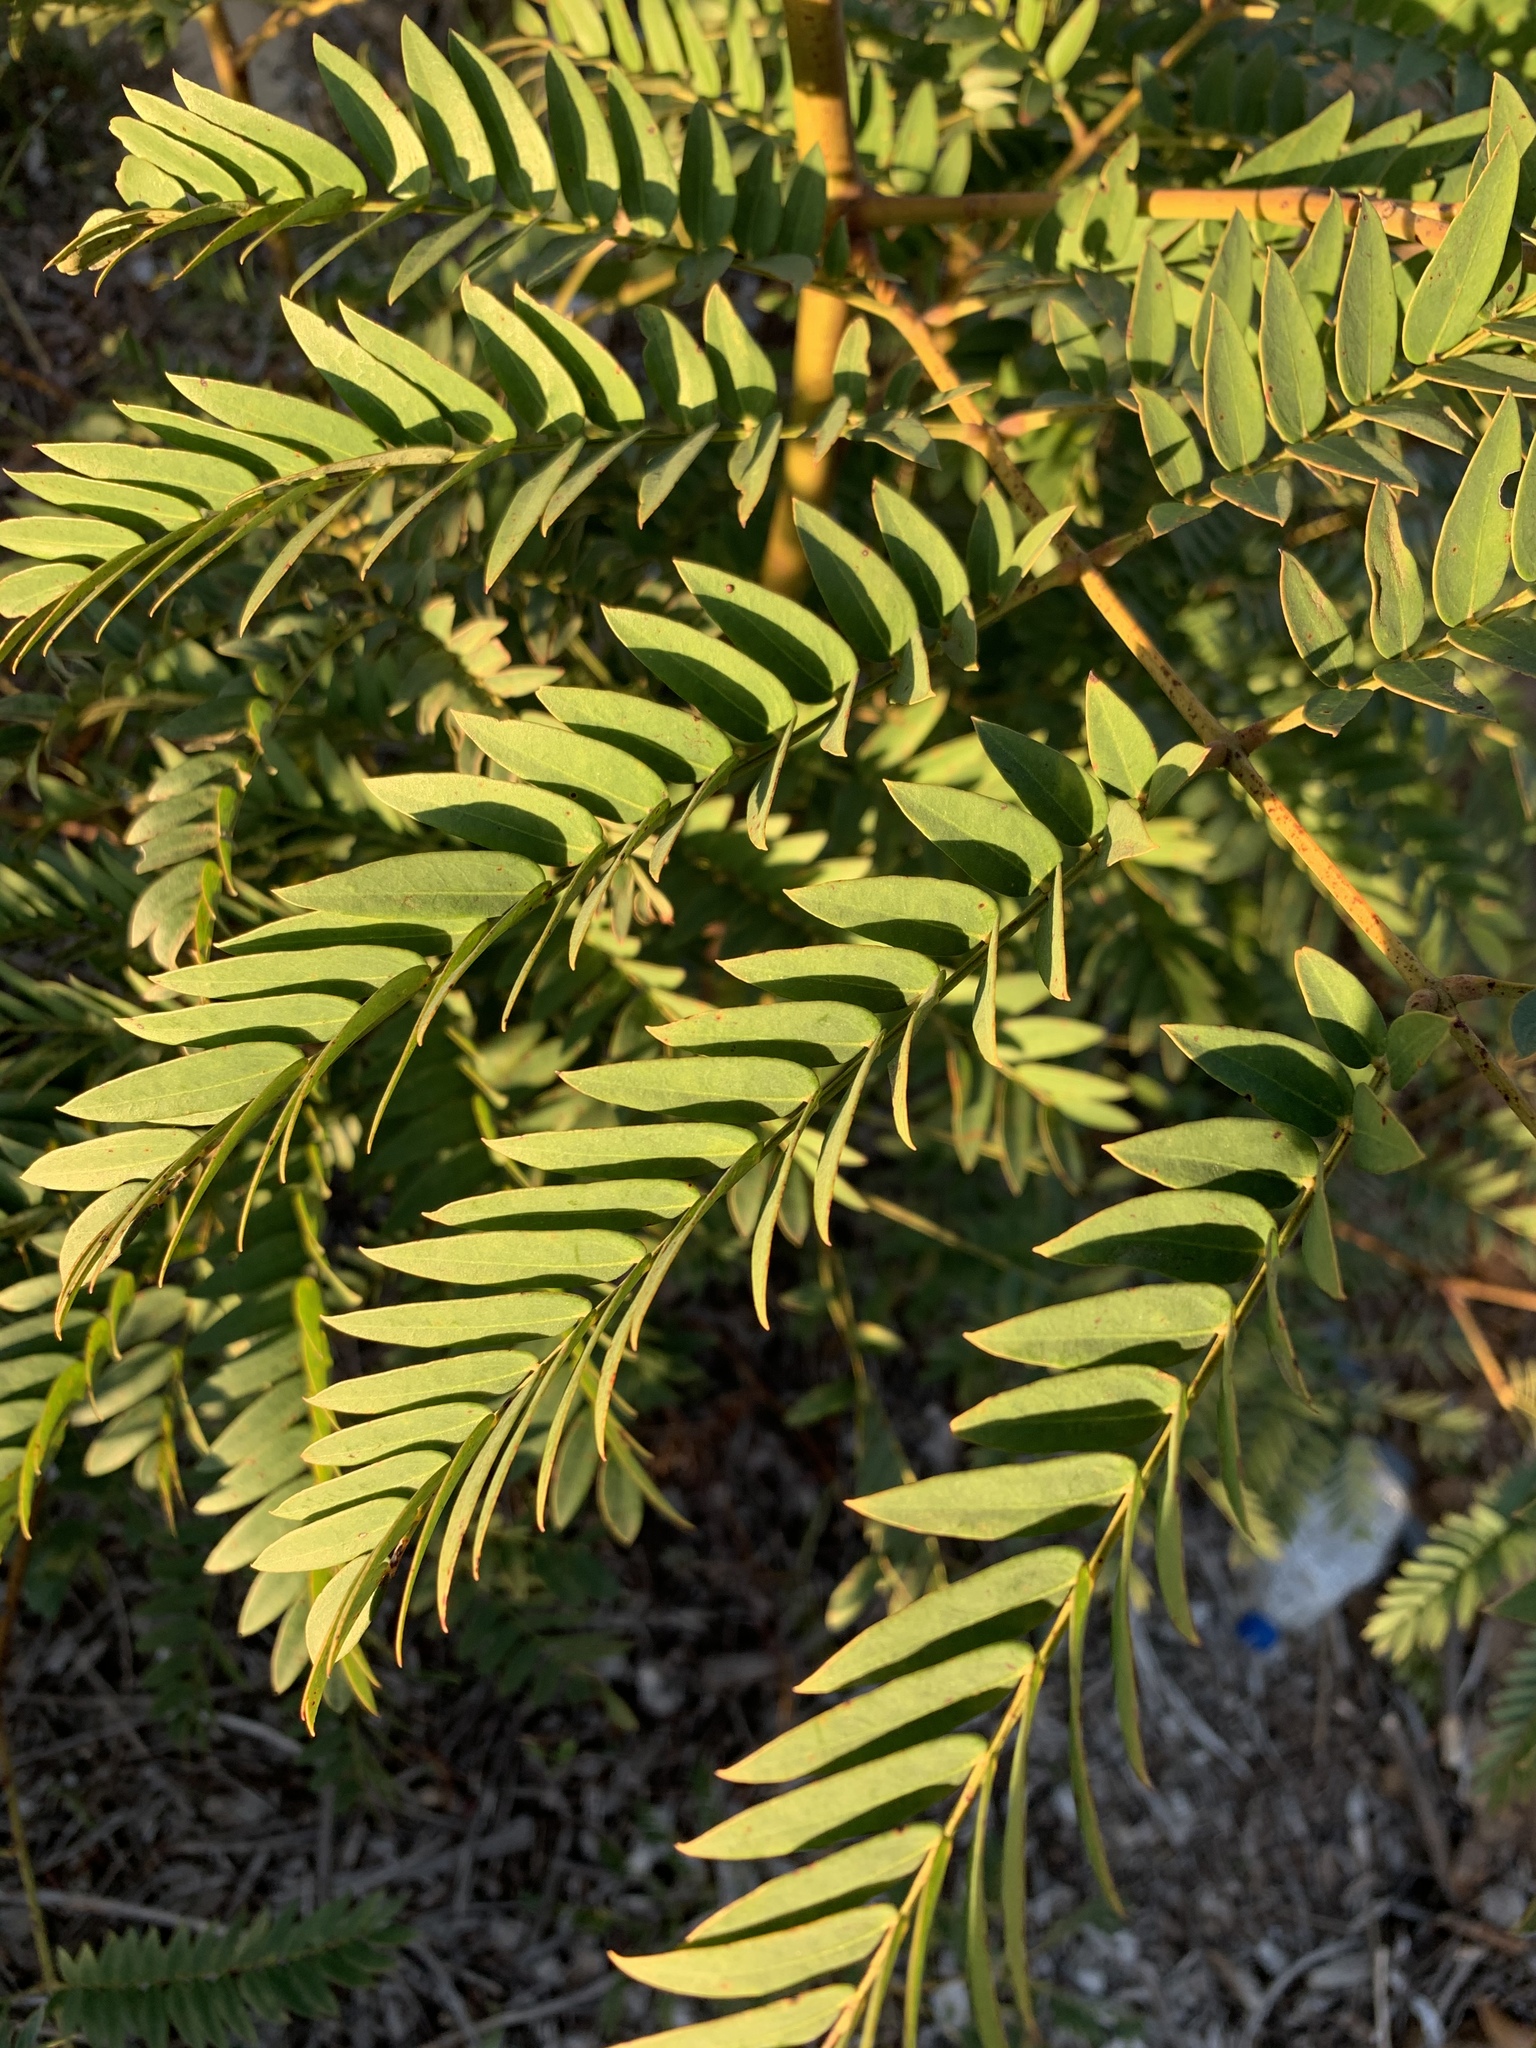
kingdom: Plantae
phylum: Tracheophyta
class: Magnoliopsida
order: Fabales
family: Fabaceae
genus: Acacia
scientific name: Acacia elata
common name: Cedar wattle
